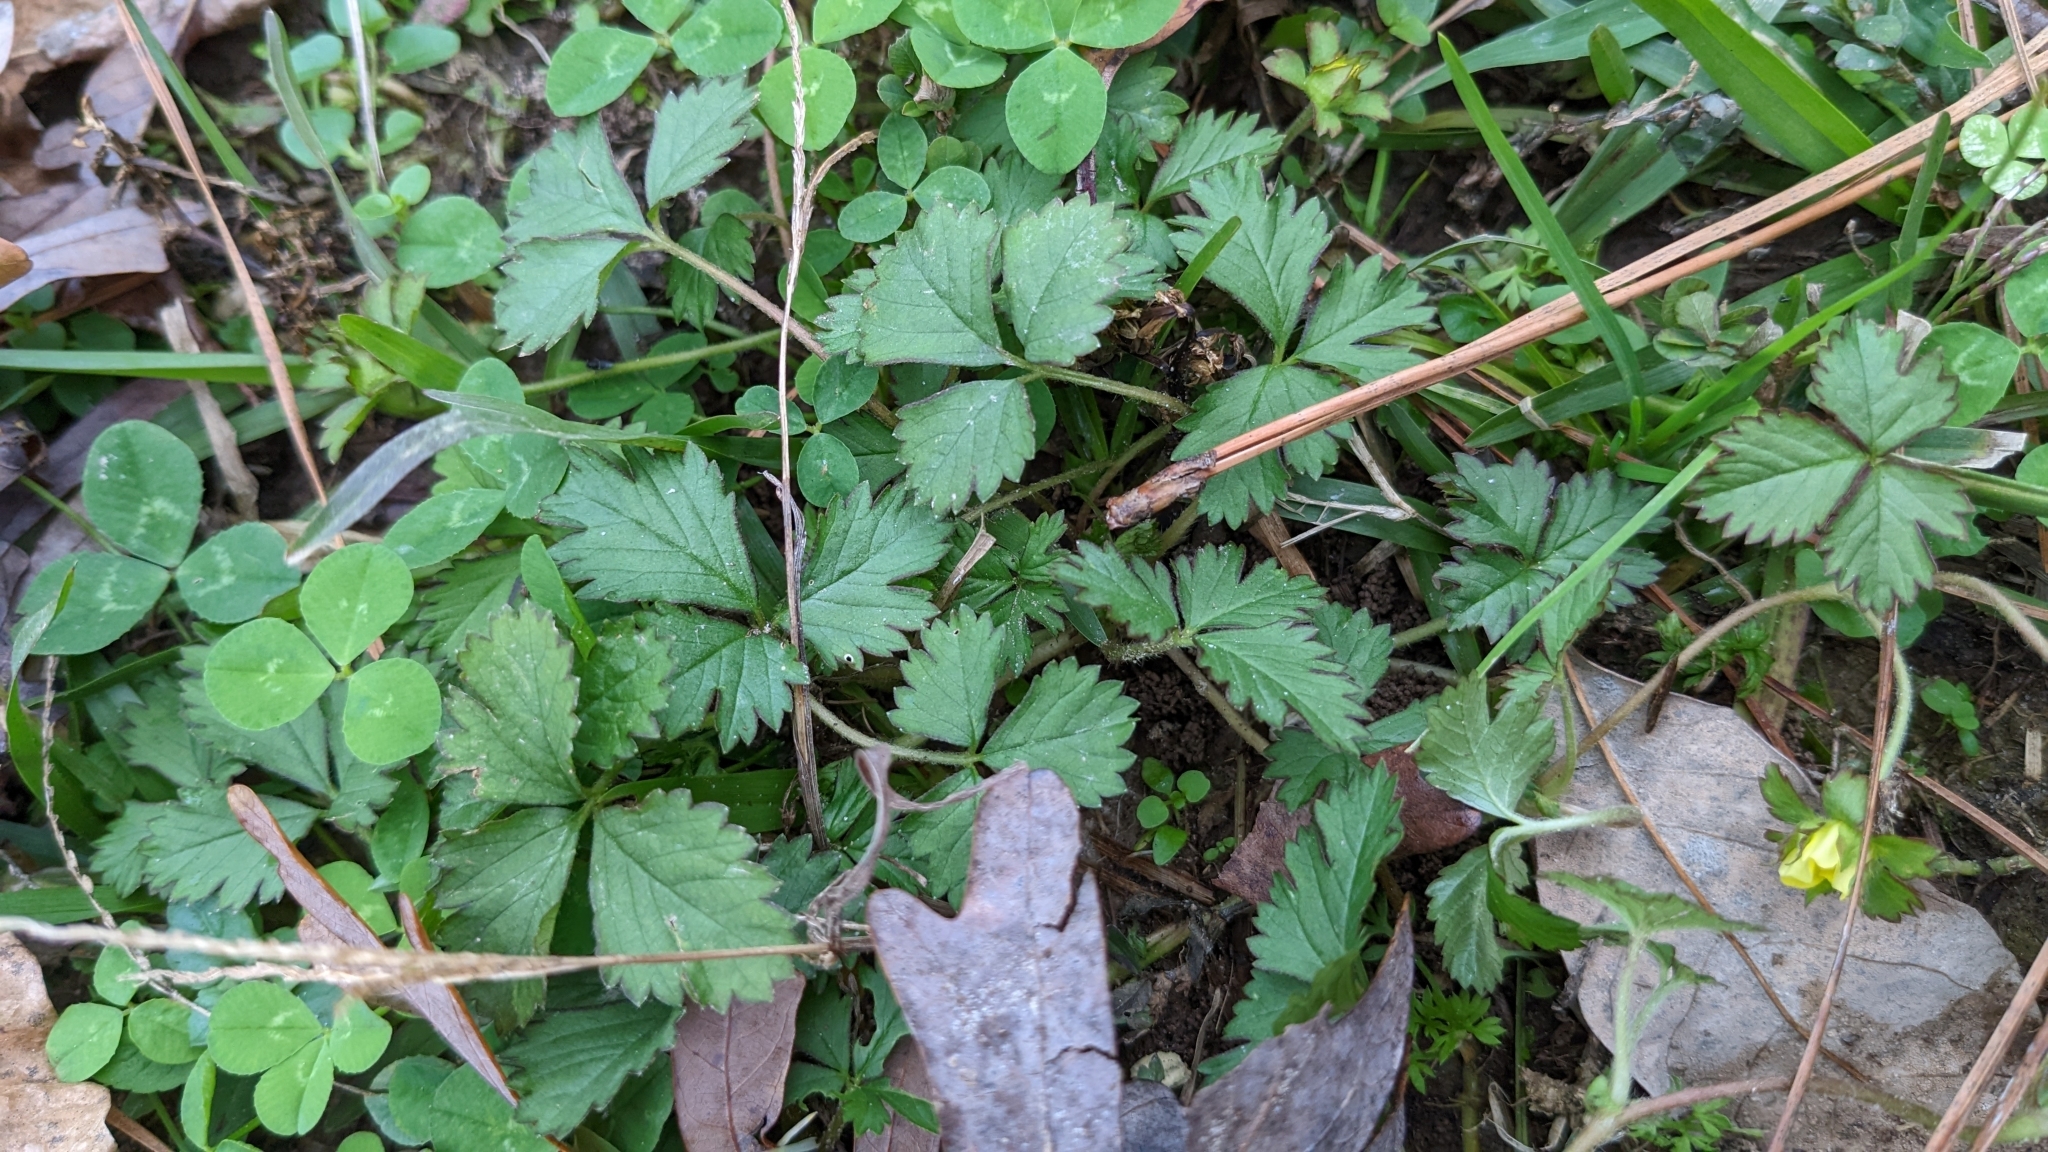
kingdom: Plantae
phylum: Tracheophyta
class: Magnoliopsida
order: Rosales
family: Rosaceae
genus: Potentilla
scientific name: Potentilla indica
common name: Yellow-flowered strawberry
